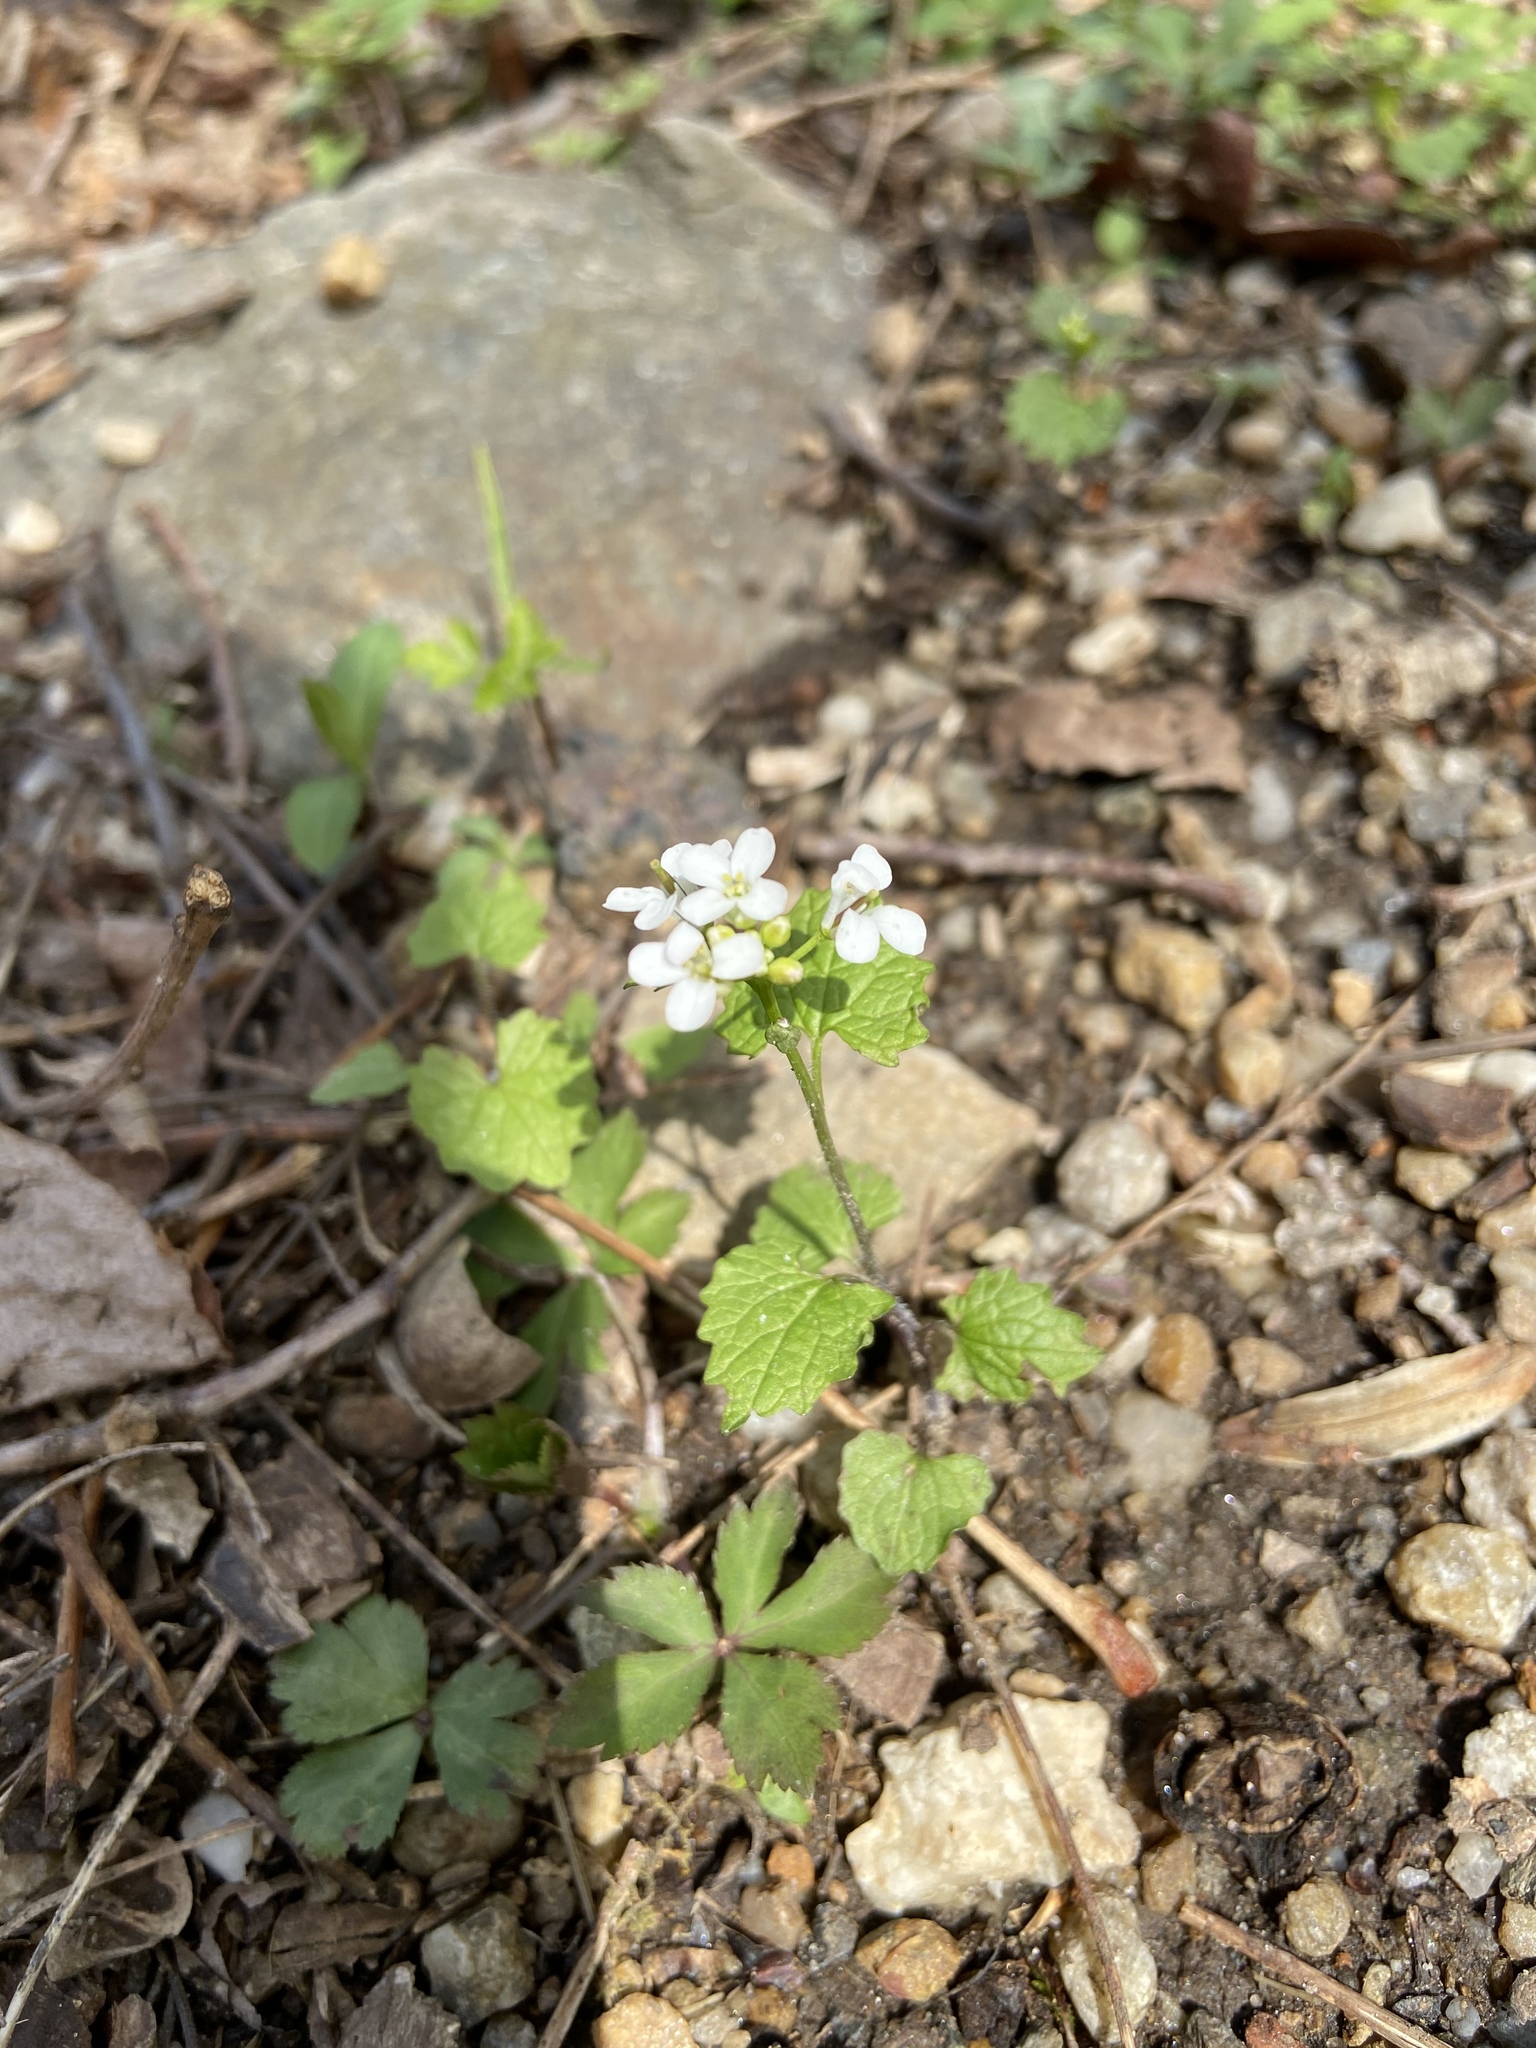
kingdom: Plantae
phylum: Tracheophyta
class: Magnoliopsida
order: Brassicales
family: Brassicaceae
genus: Alliaria
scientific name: Alliaria petiolata
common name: Garlic mustard
